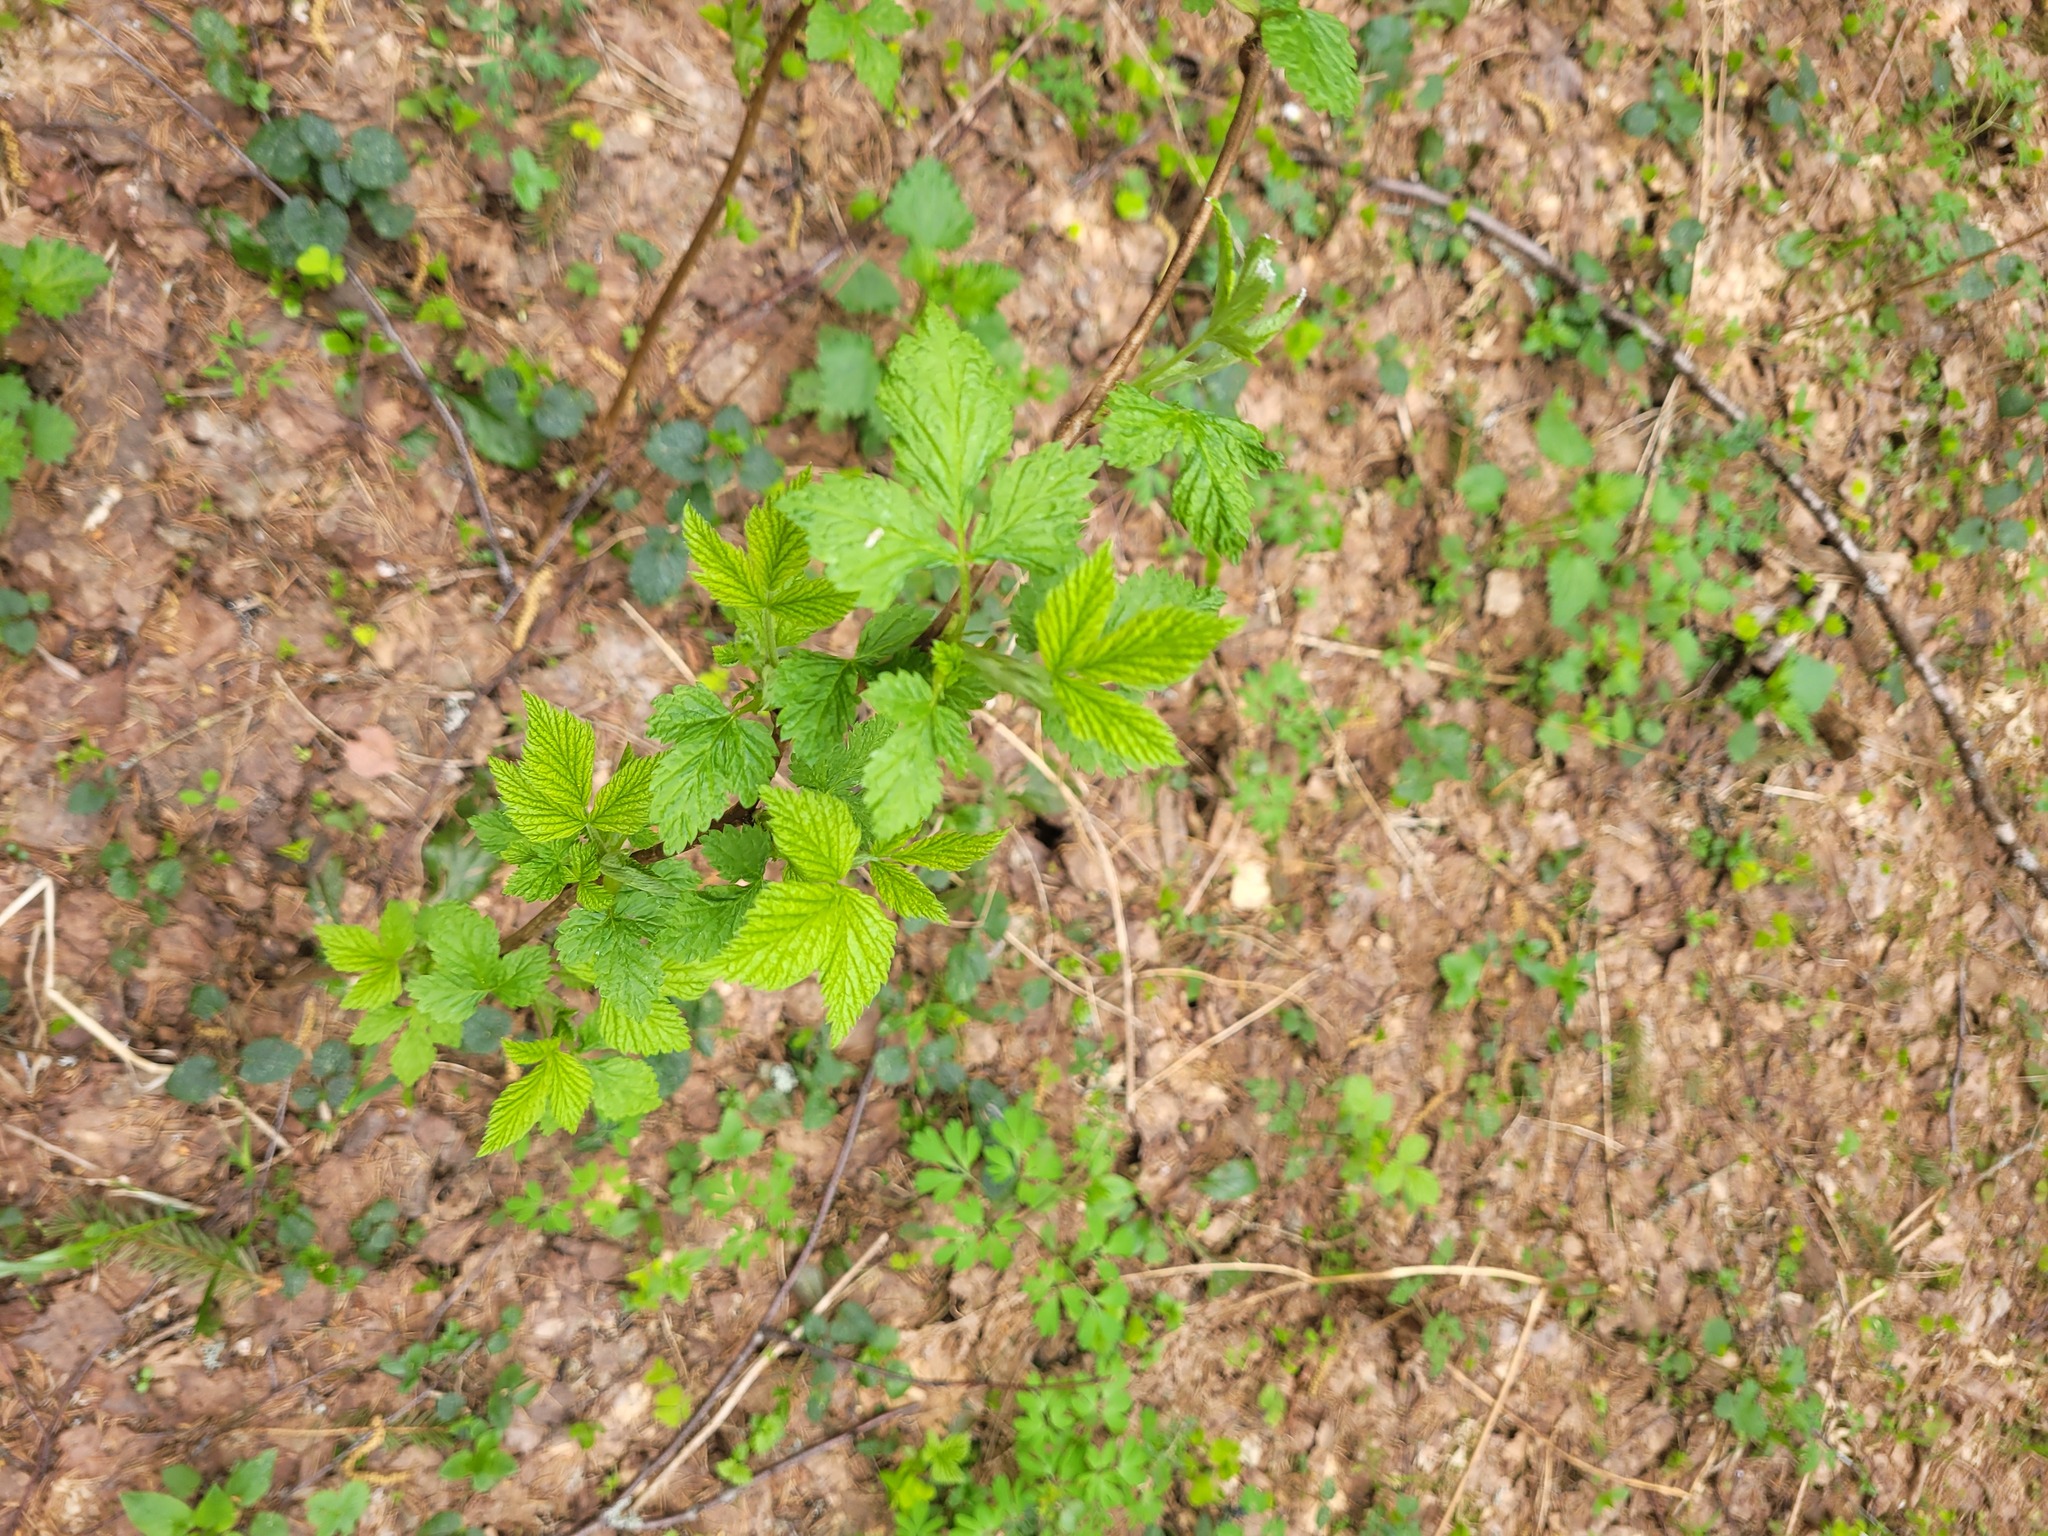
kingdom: Plantae
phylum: Tracheophyta
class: Magnoliopsida
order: Rosales
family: Rosaceae
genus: Rubus
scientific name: Rubus idaeus
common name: Raspberry
